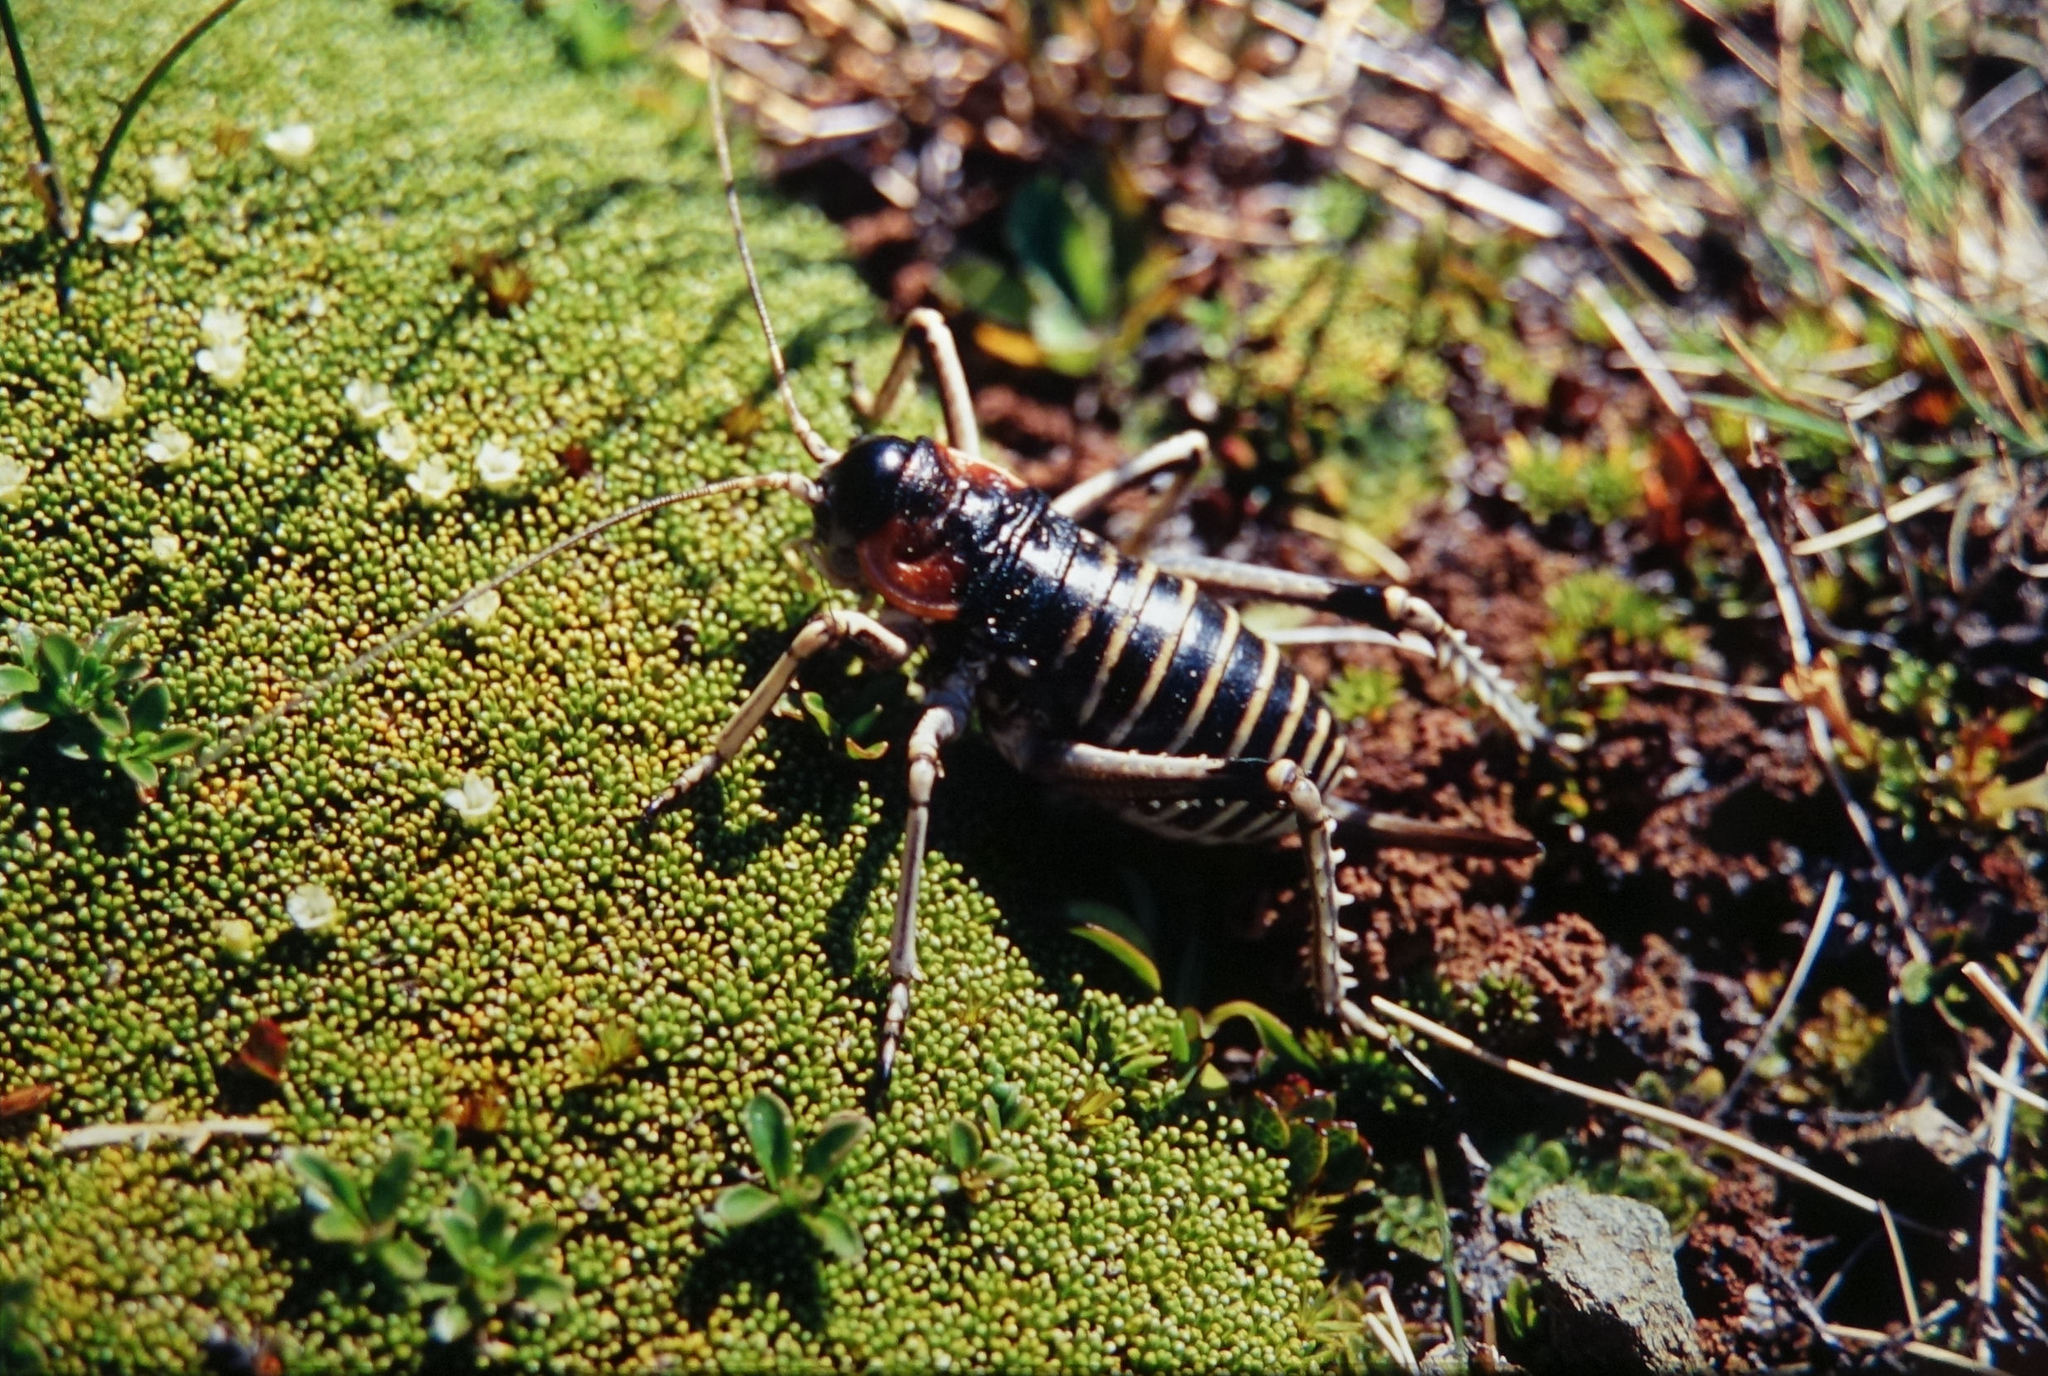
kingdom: Animalia
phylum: Arthropoda
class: Insecta
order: Orthoptera
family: Anostostomatidae
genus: Deinacrida
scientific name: Deinacrida connectens
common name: Scree weta
